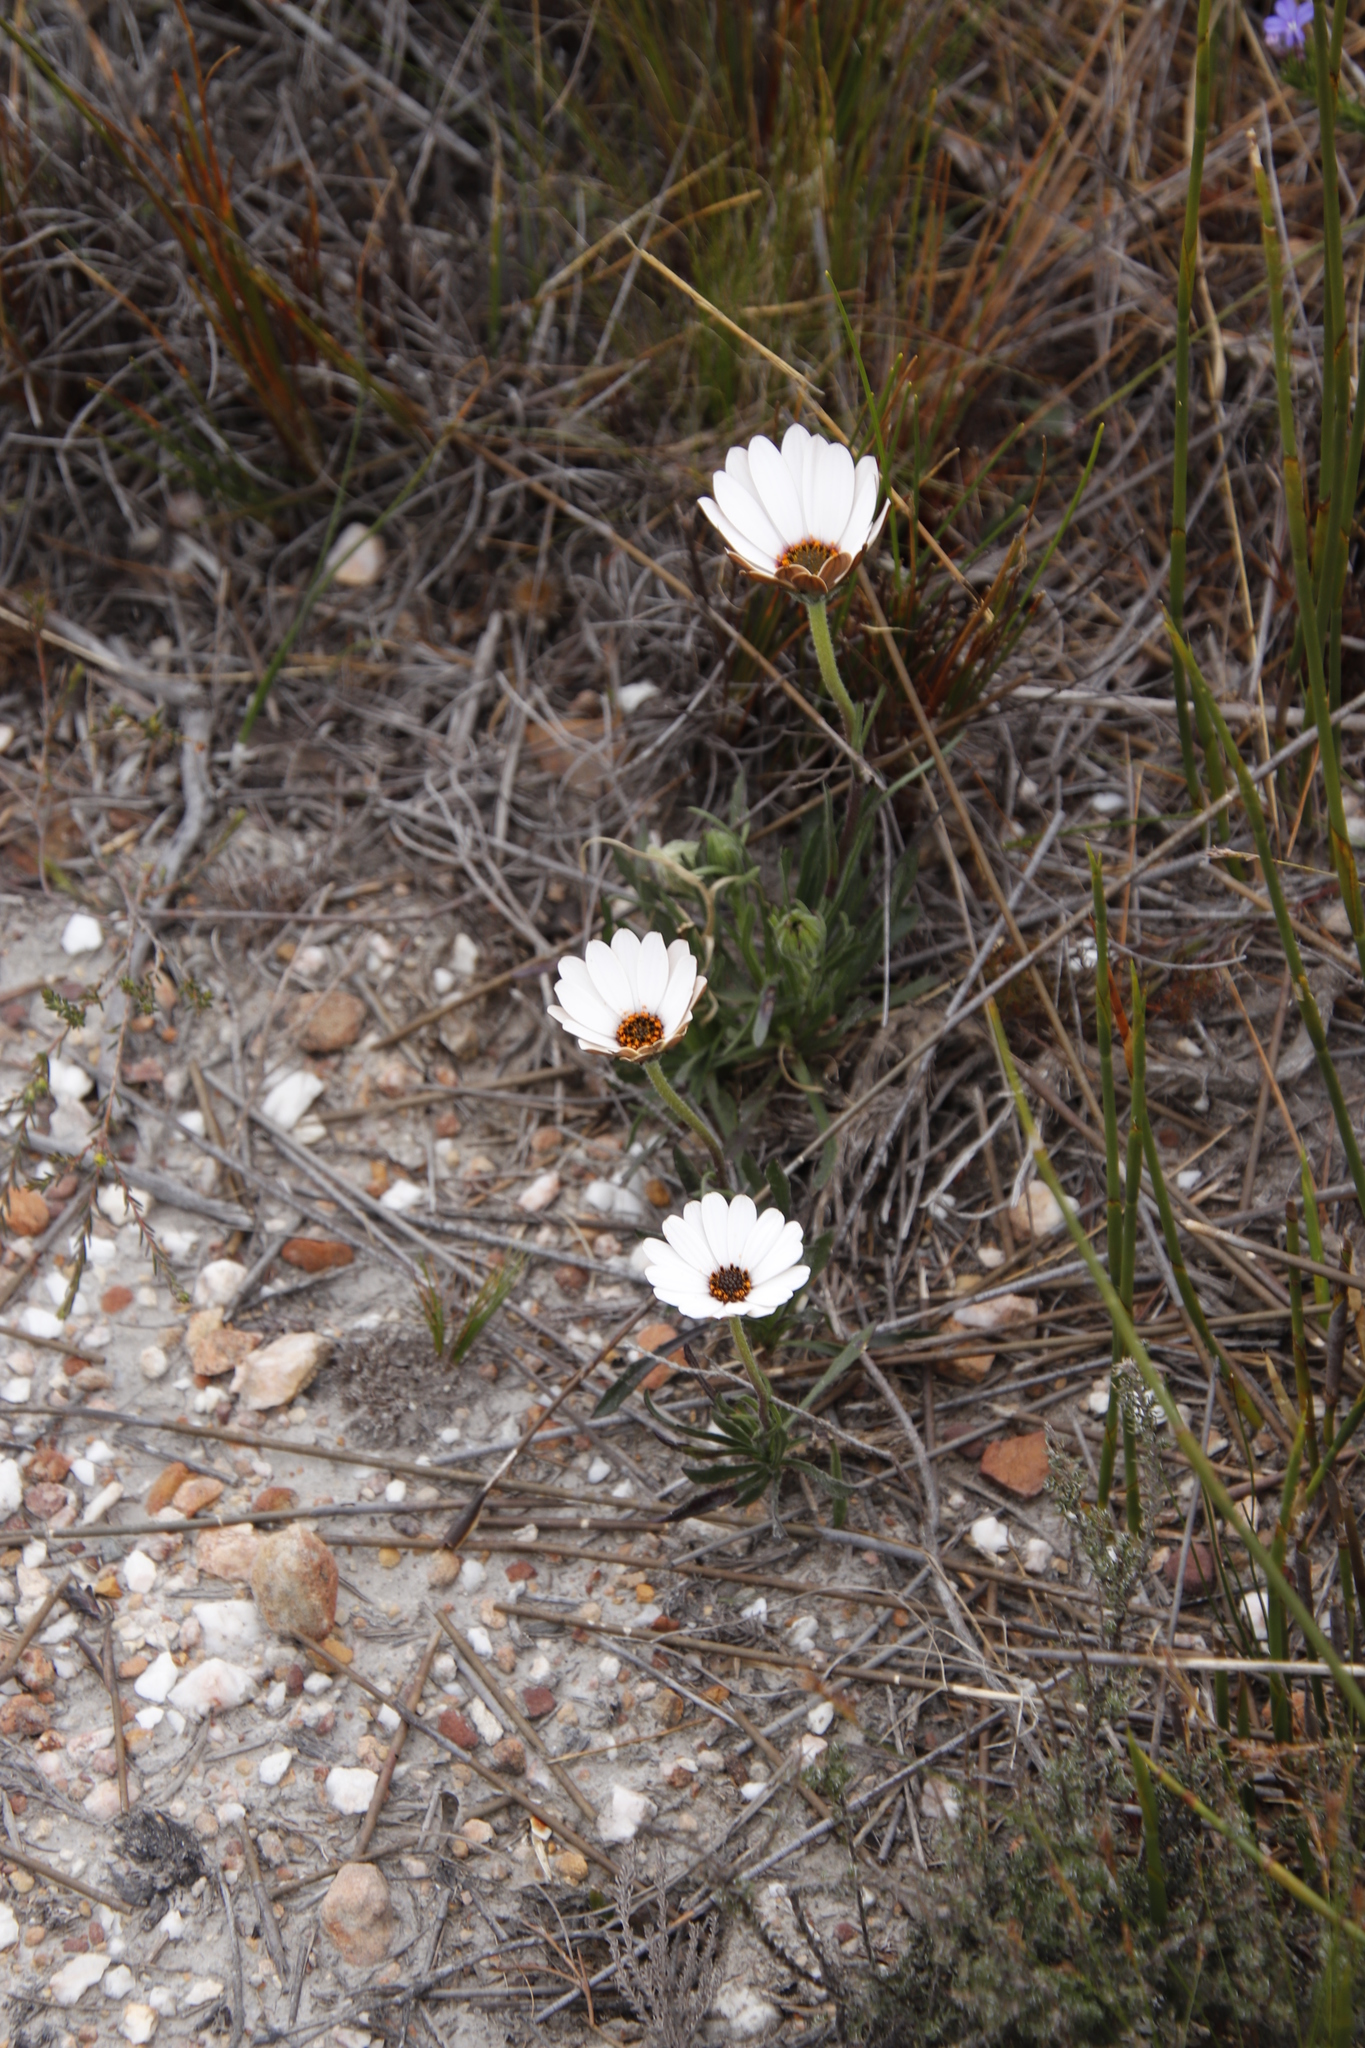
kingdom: Plantae
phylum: Tracheophyta
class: Magnoliopsida
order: Asterales
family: Asteraceae
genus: Dimorphotheca
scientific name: Dimorphotheca nudicaulis
